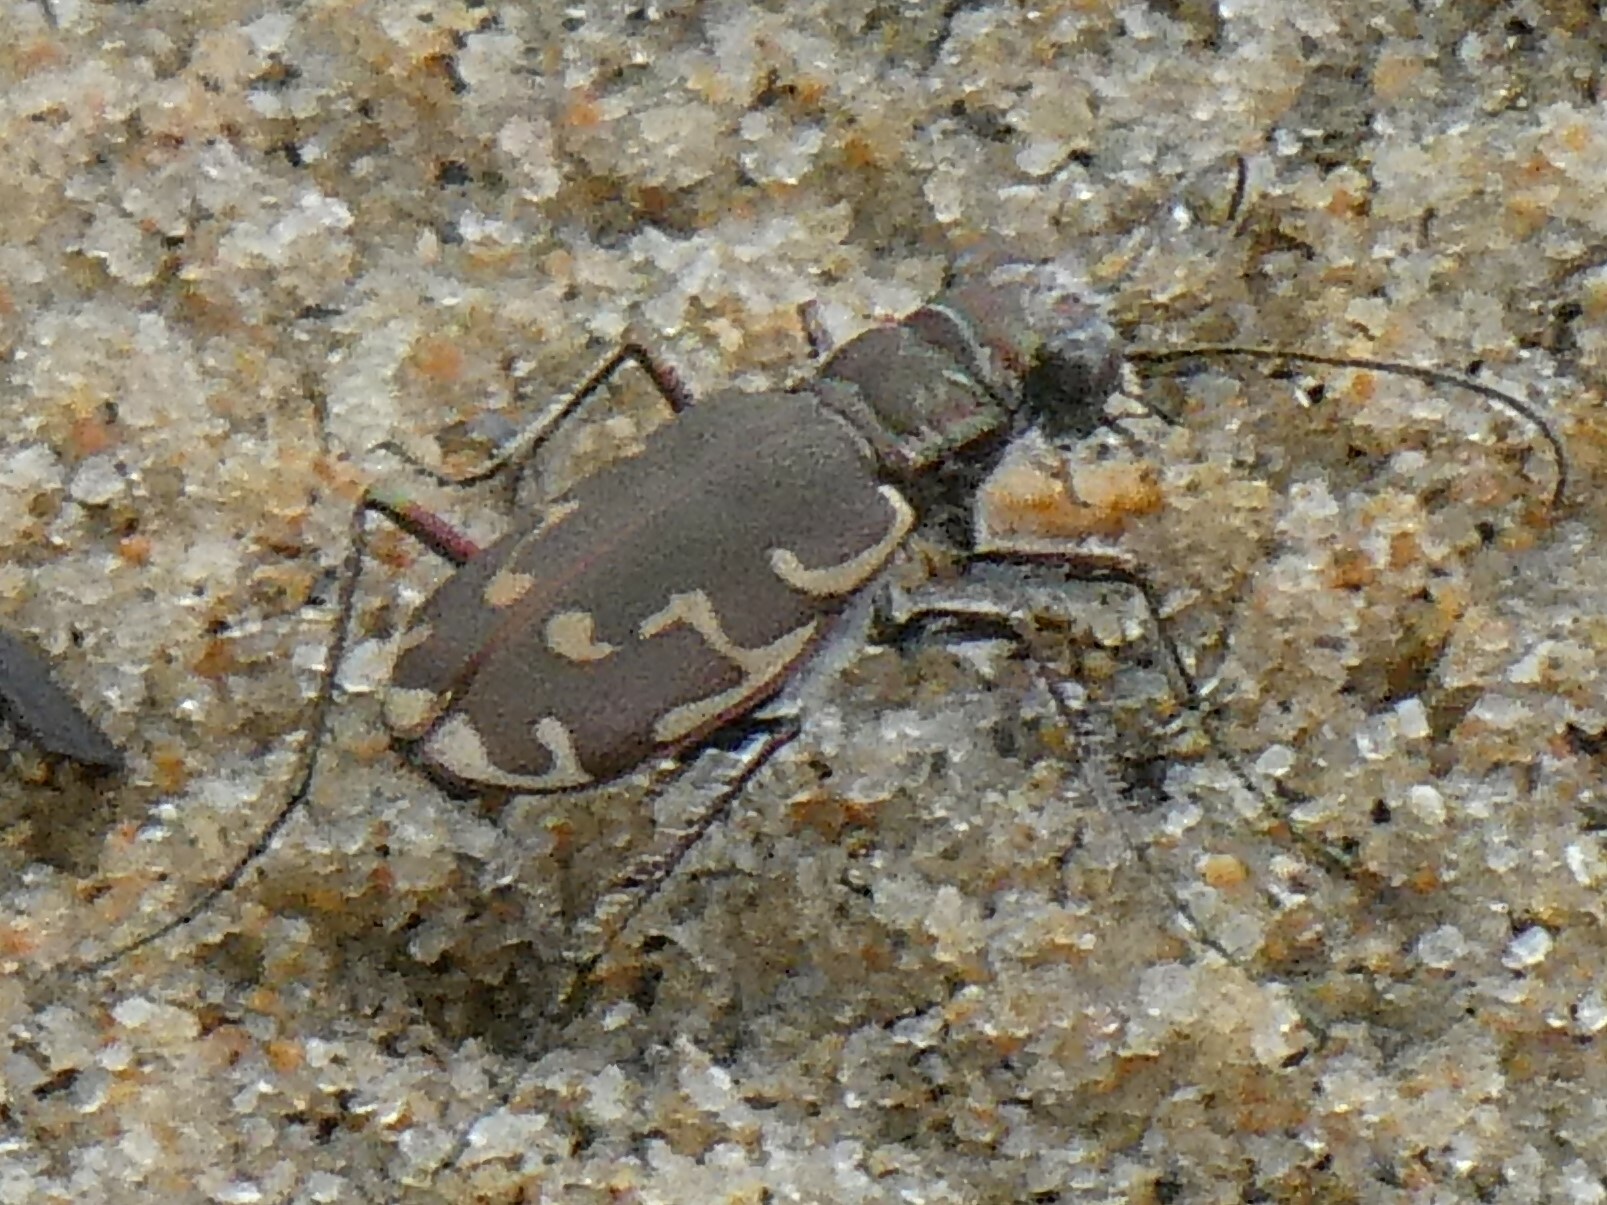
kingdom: Animalia
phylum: Arthropoda
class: Insecta
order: Coleoptera
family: Carabidae
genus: Cicindela
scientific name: Cicindela repanda
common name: Bronzed tiger beetle
